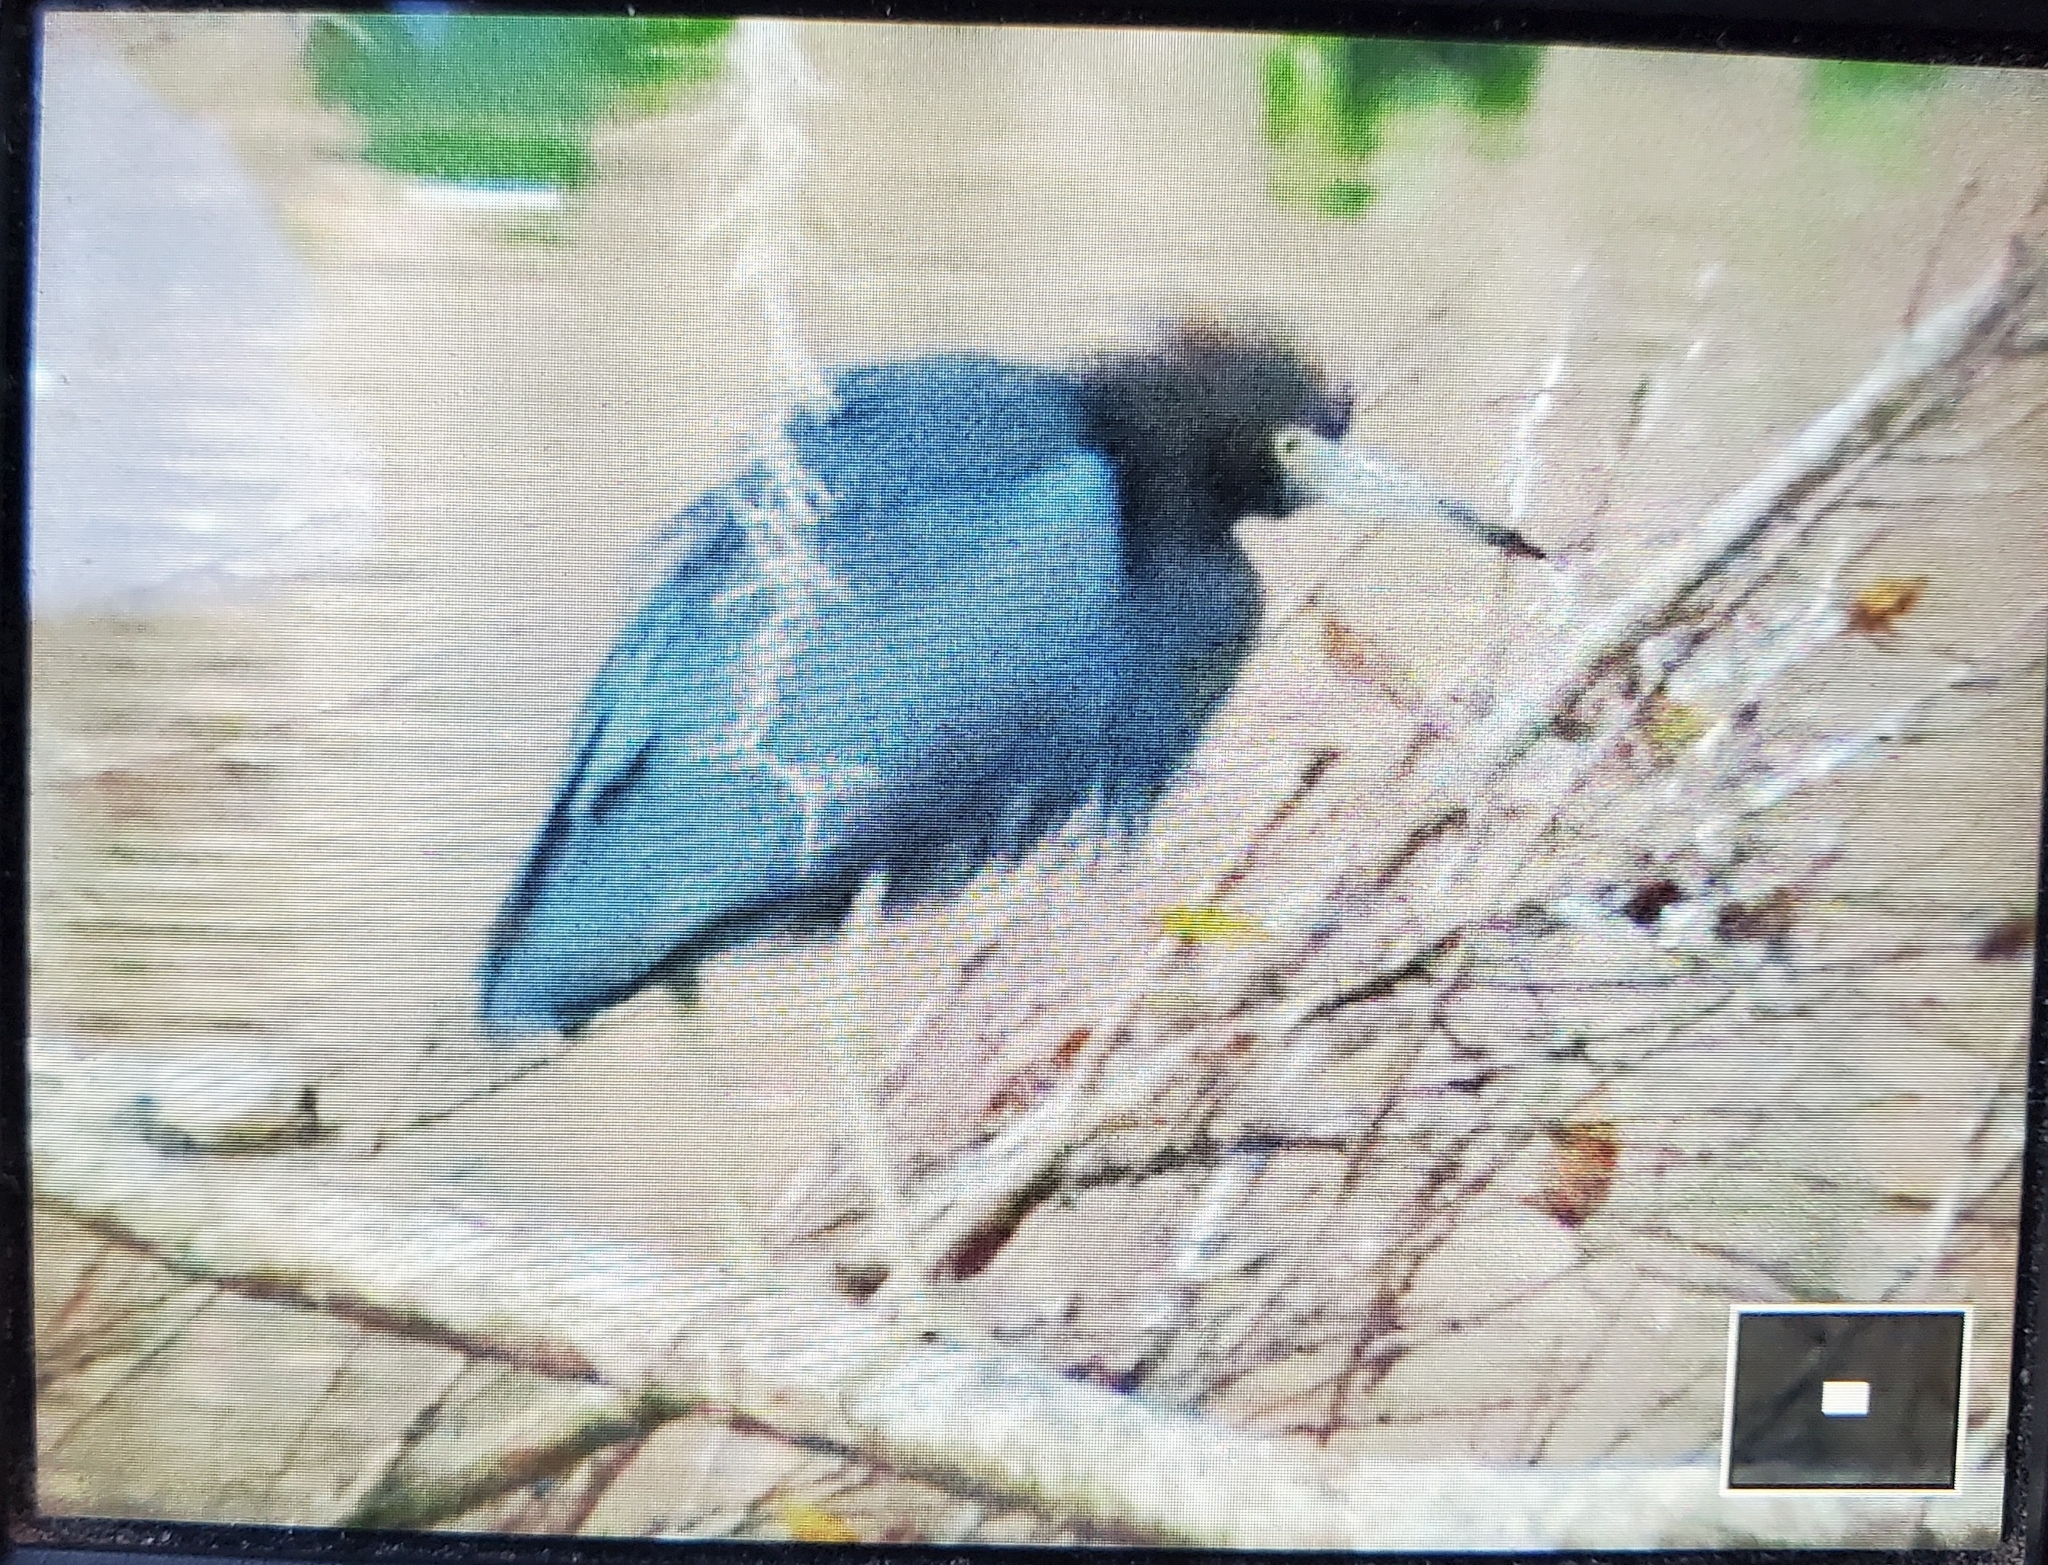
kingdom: Animalia
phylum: Chordata
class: Aves
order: Pelecaniformes
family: Ardeidae
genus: Egretta
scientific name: Egretta caerulea
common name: Little blue heron
